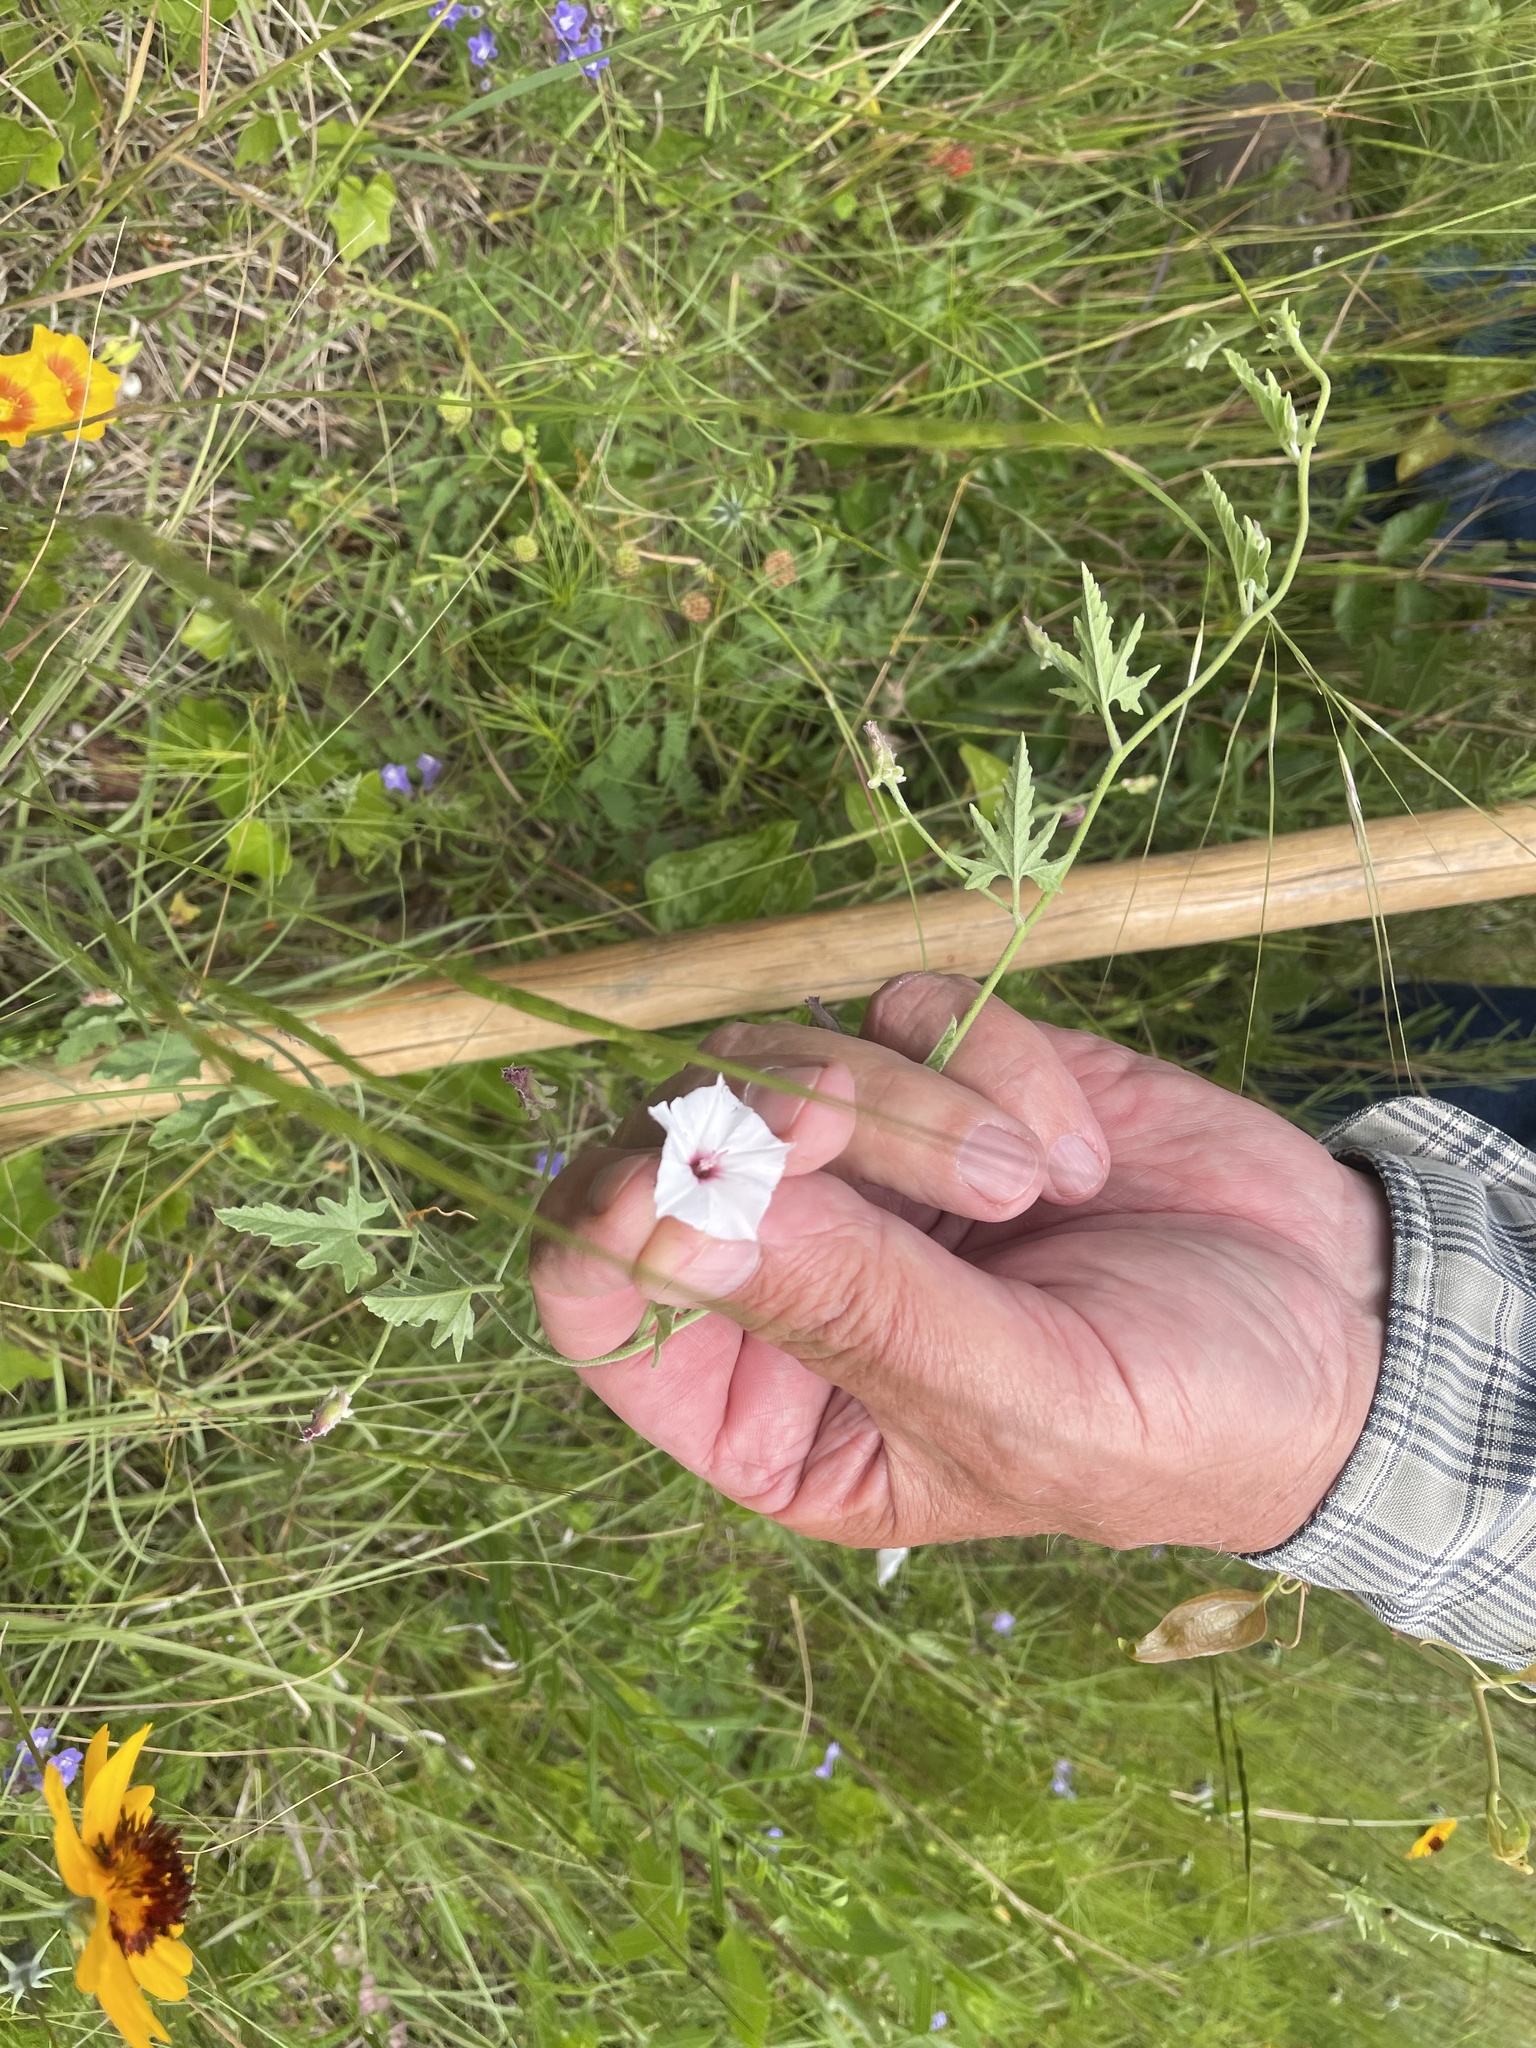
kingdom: Plantae
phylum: Tracheophyta
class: Magnoliopsida
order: Solanales
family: Convolvulaceae
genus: Convolvulus
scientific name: Convolvulus equitans
